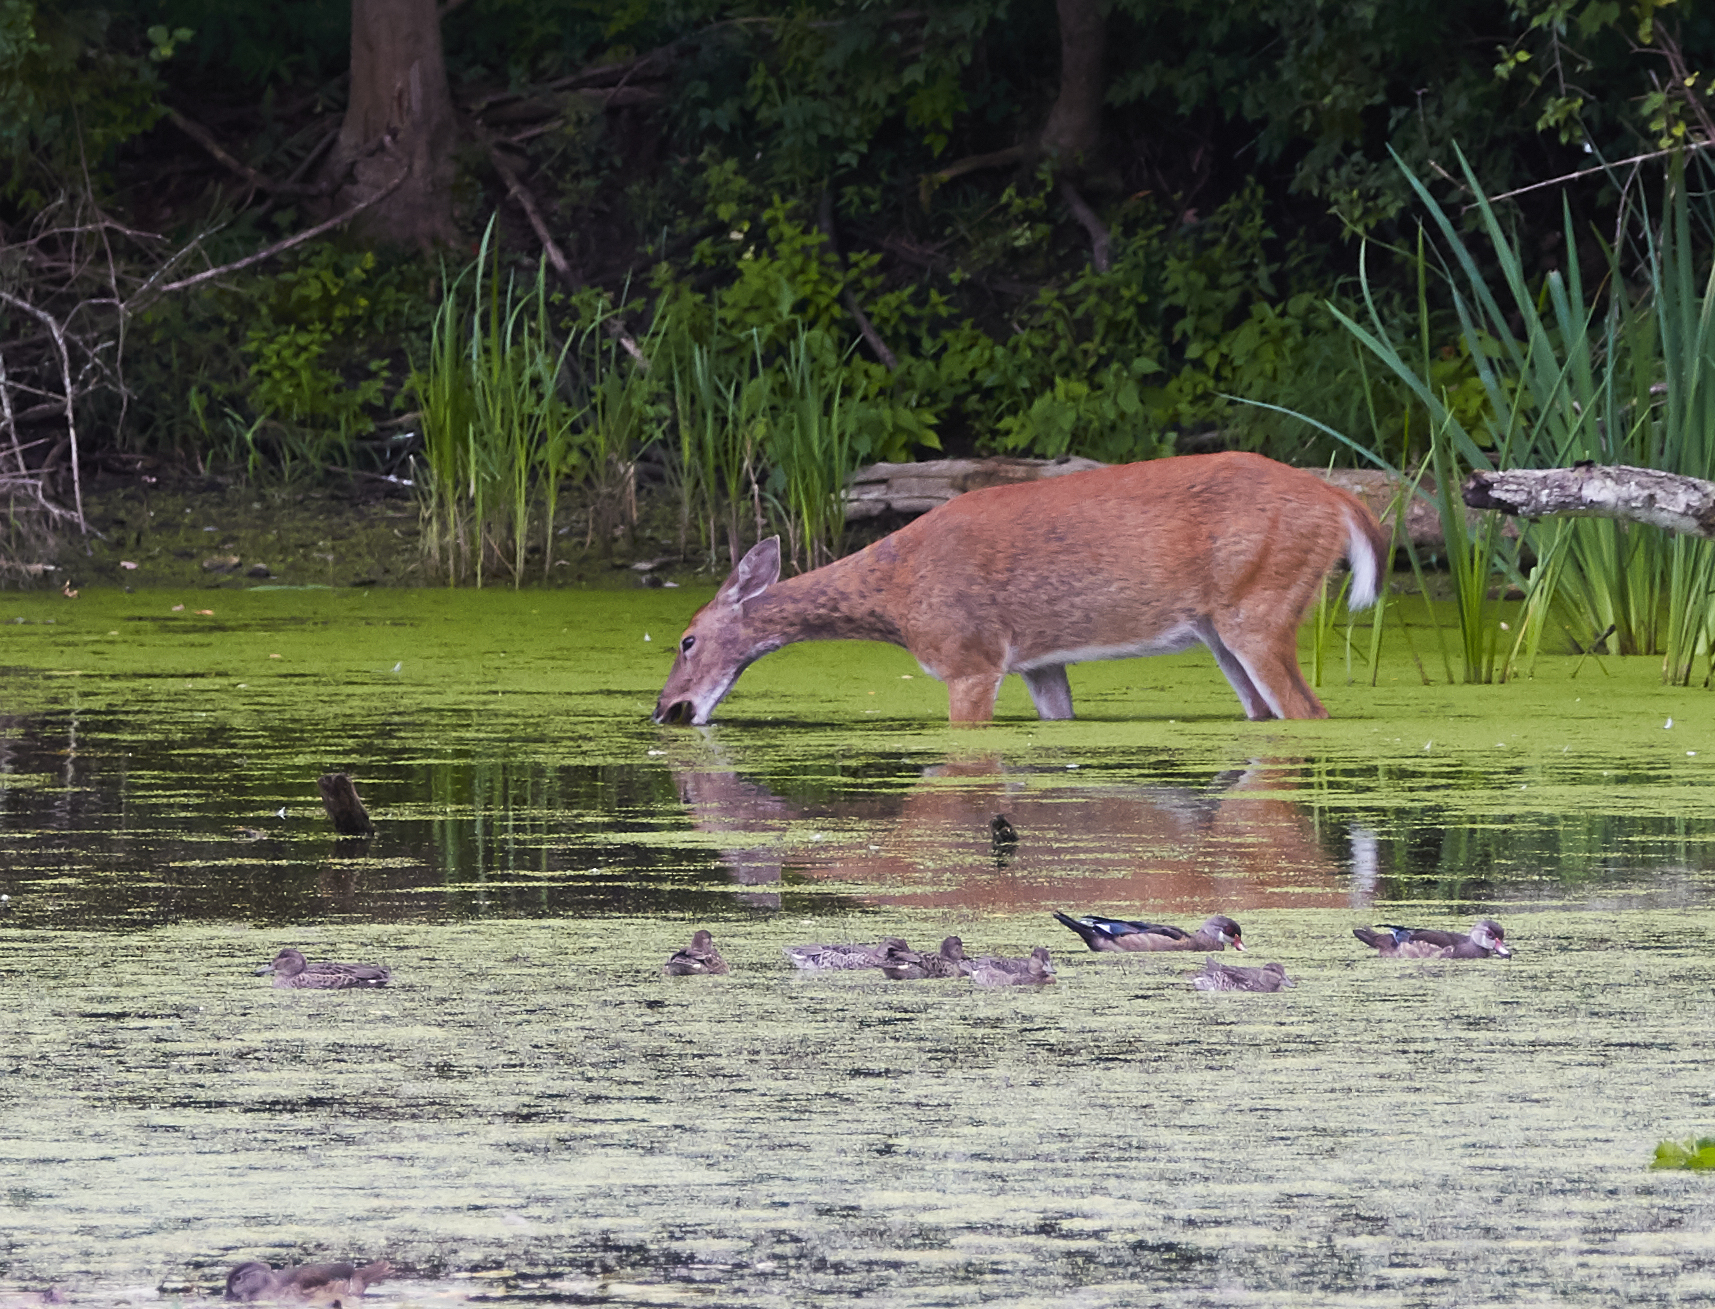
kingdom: Animalia
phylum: Chordata
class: Aves
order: Anseriformes
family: Anatidae
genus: Aix
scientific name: Aix sponsa
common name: Wood duck
